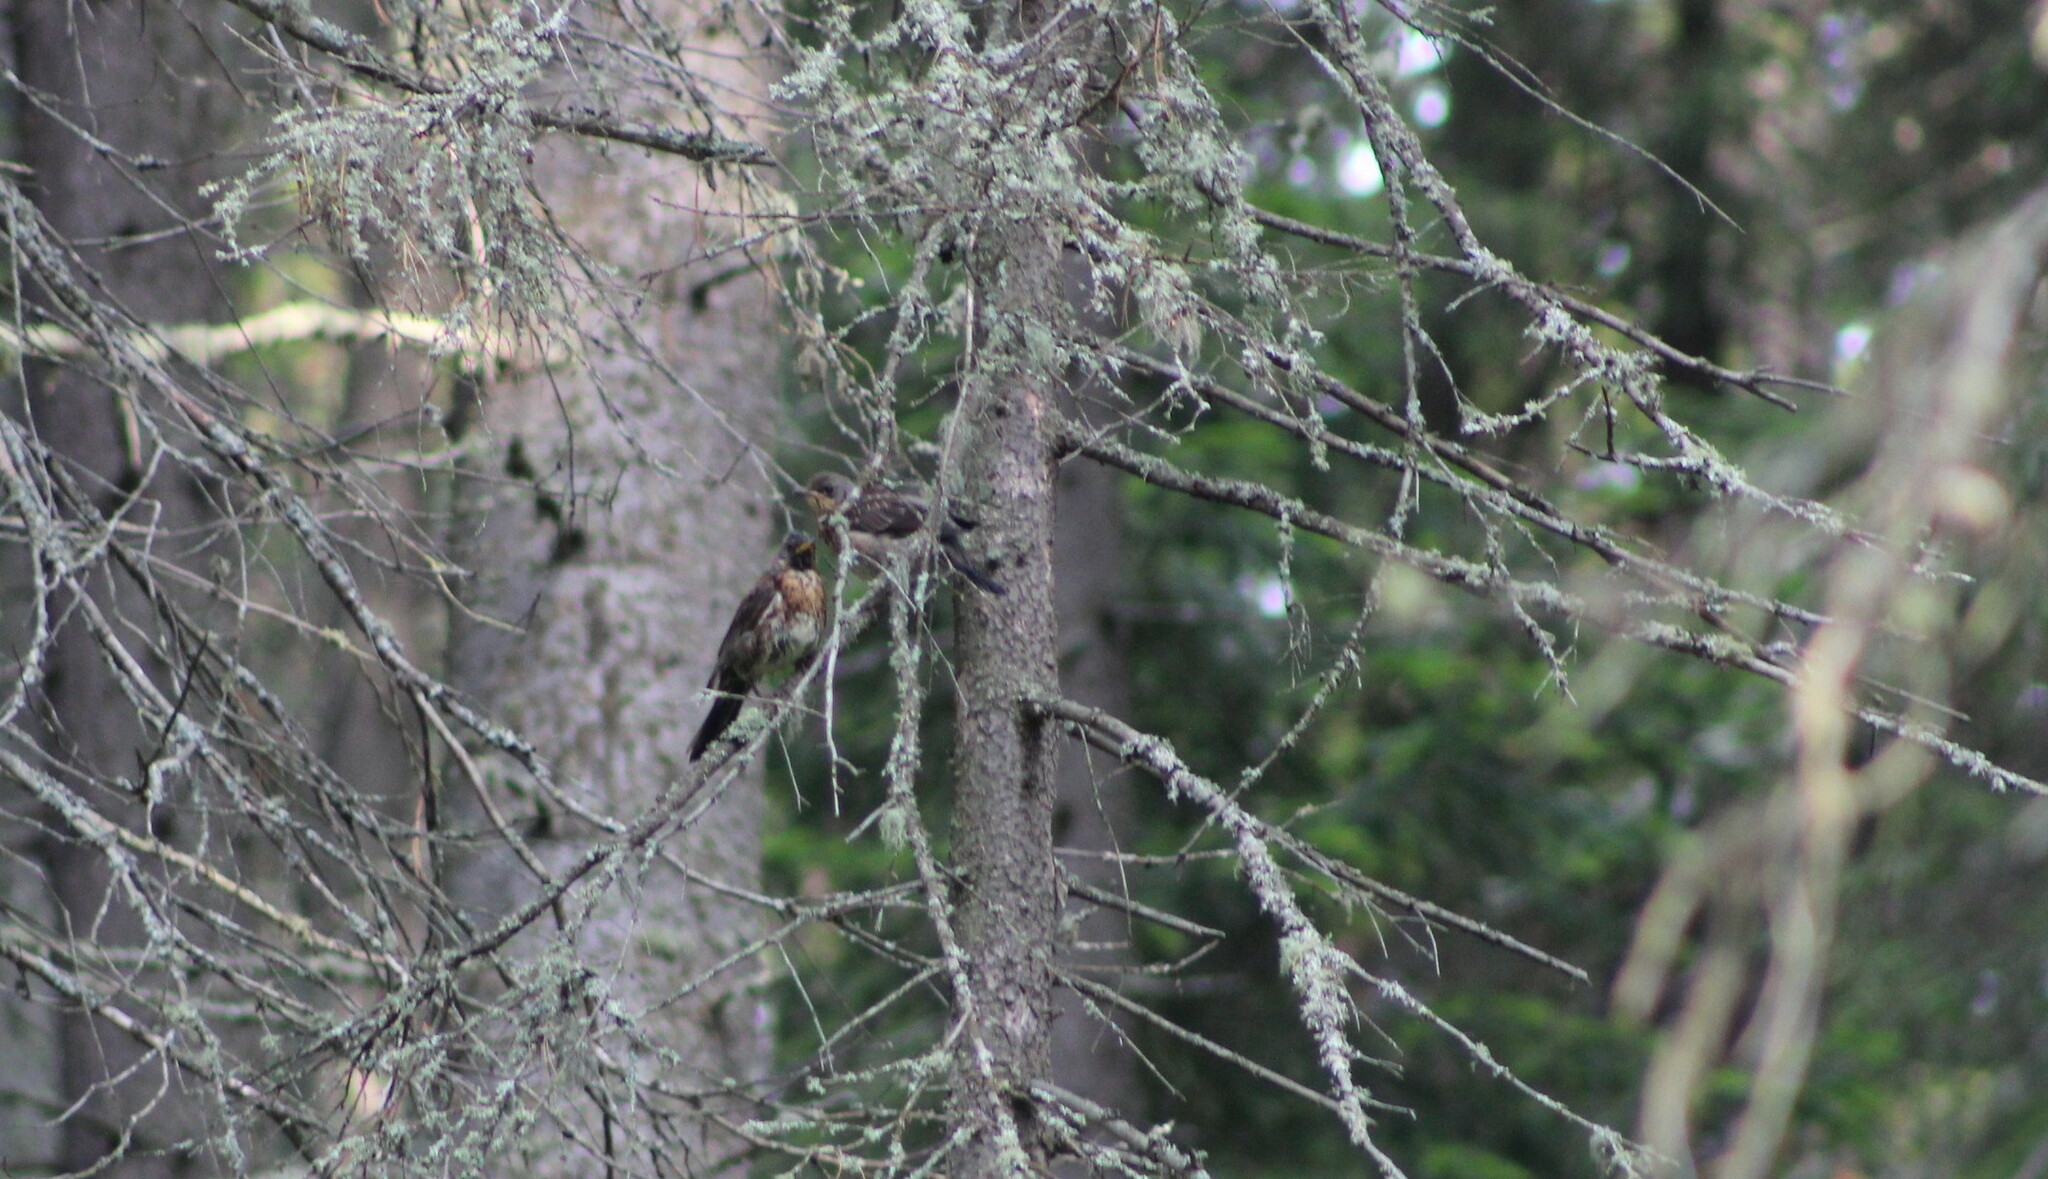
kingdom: Animalia
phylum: Chordata
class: Aves
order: Passeriformes
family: Turdidae
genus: Turdus
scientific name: Turdus pilaris
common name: Fieldfare
